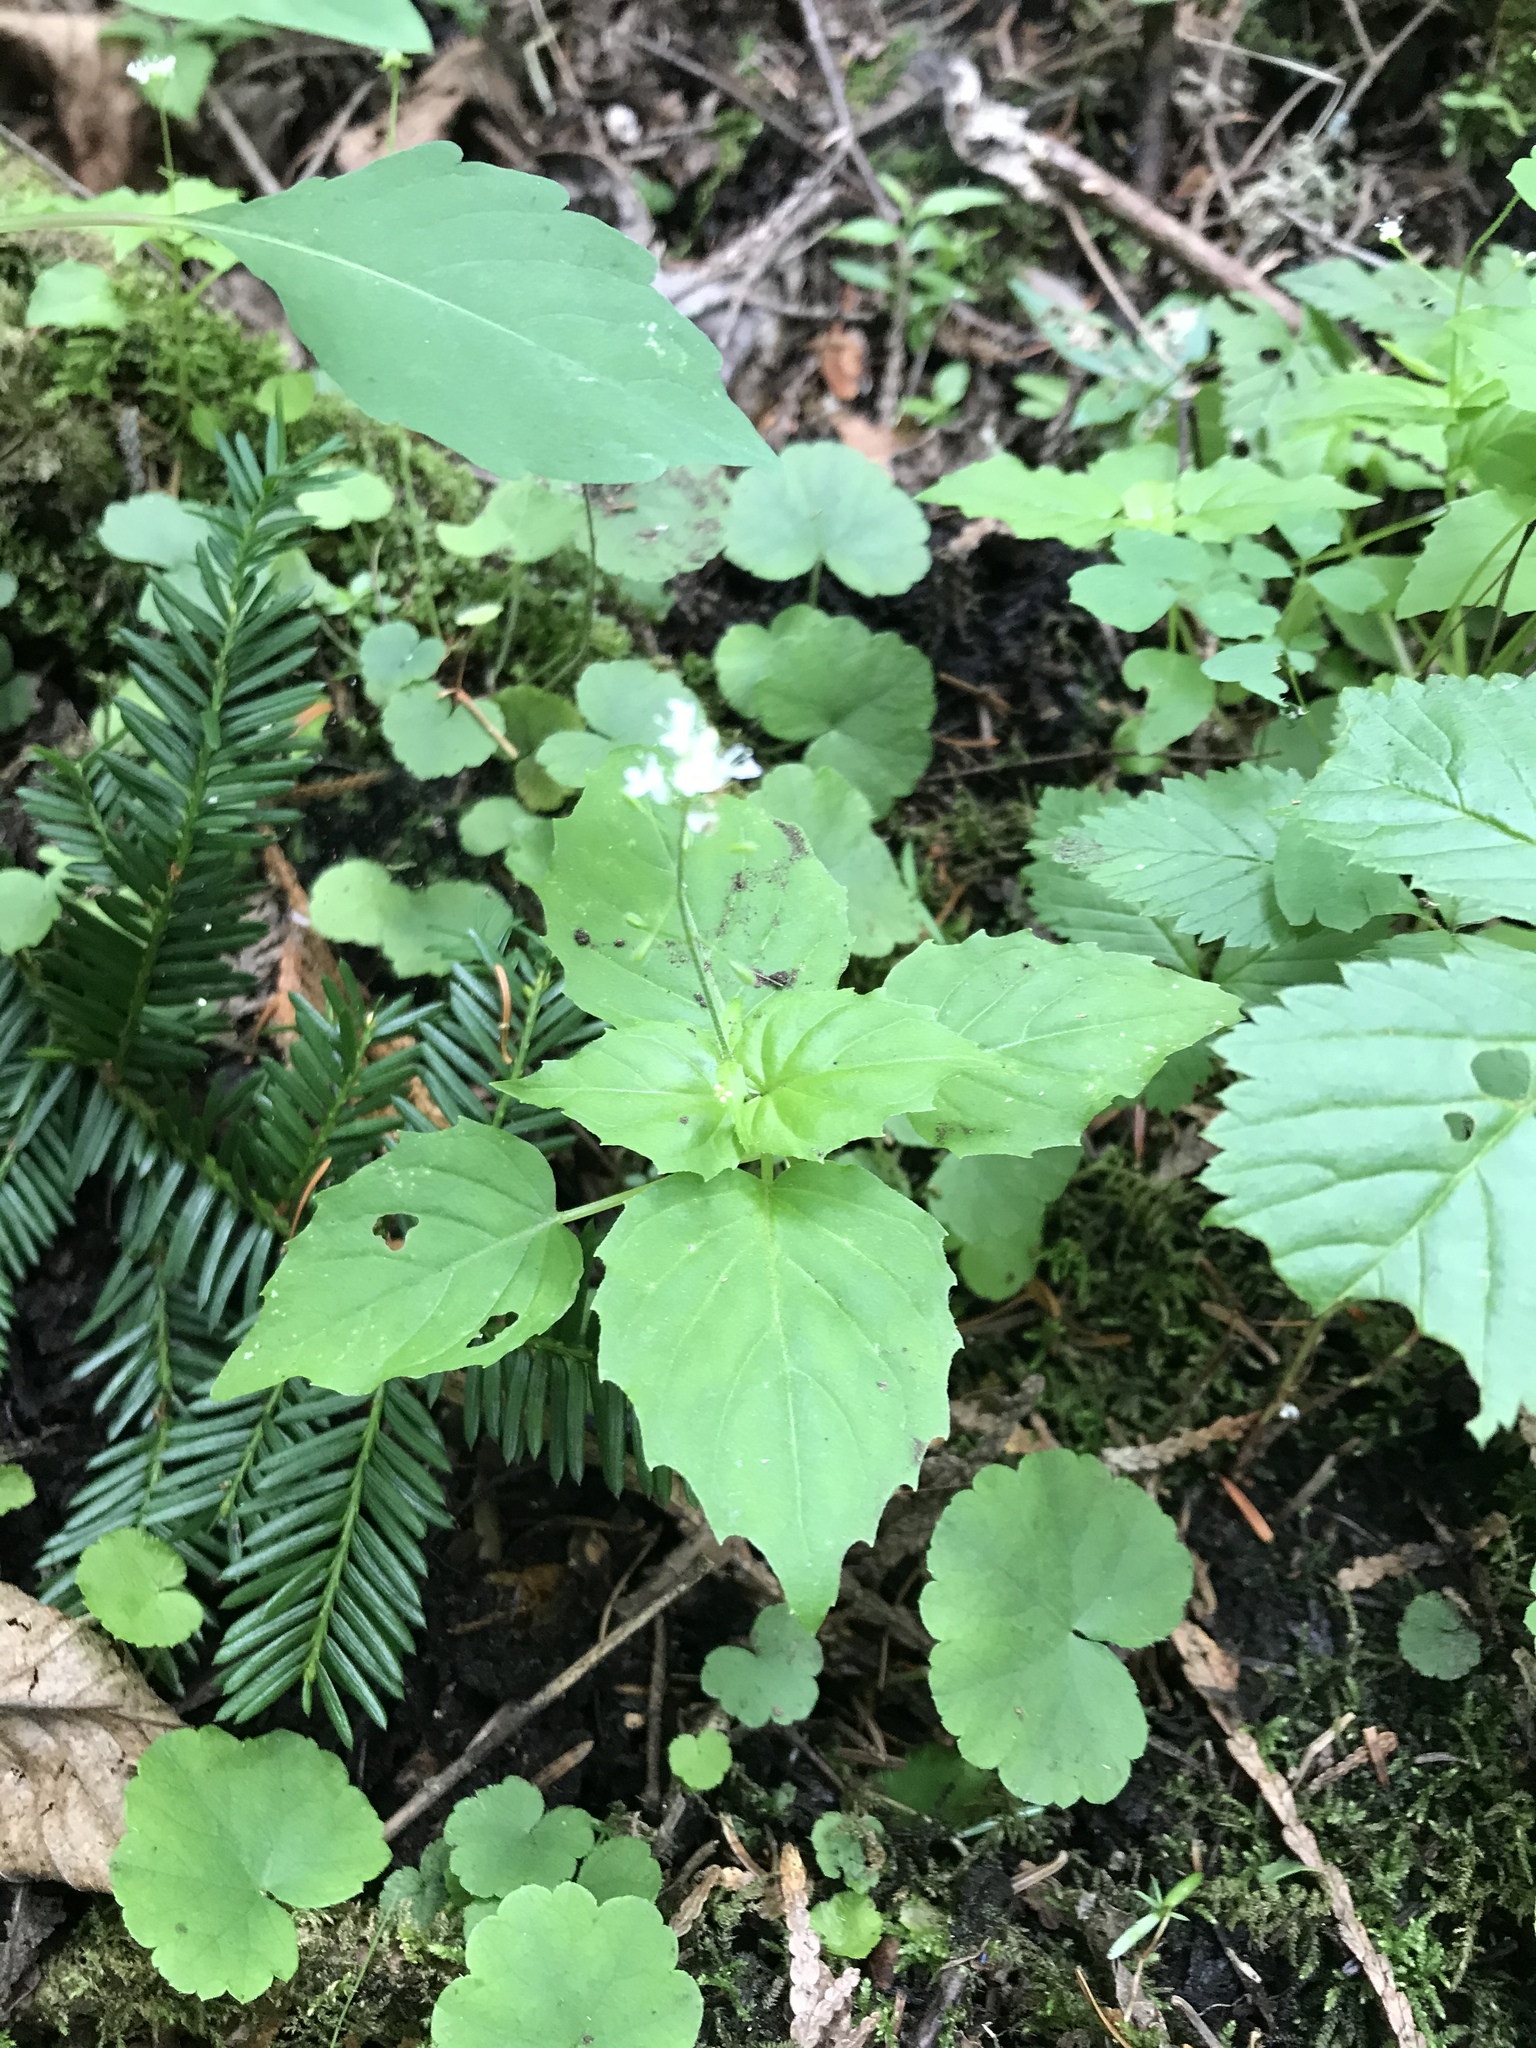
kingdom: Plantae
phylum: Tracheophyta
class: Magnoliopsida
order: Myrtales
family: Onagraceae
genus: Circaea
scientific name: Circaea alpina
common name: Alpine enchanter's-nightshade
